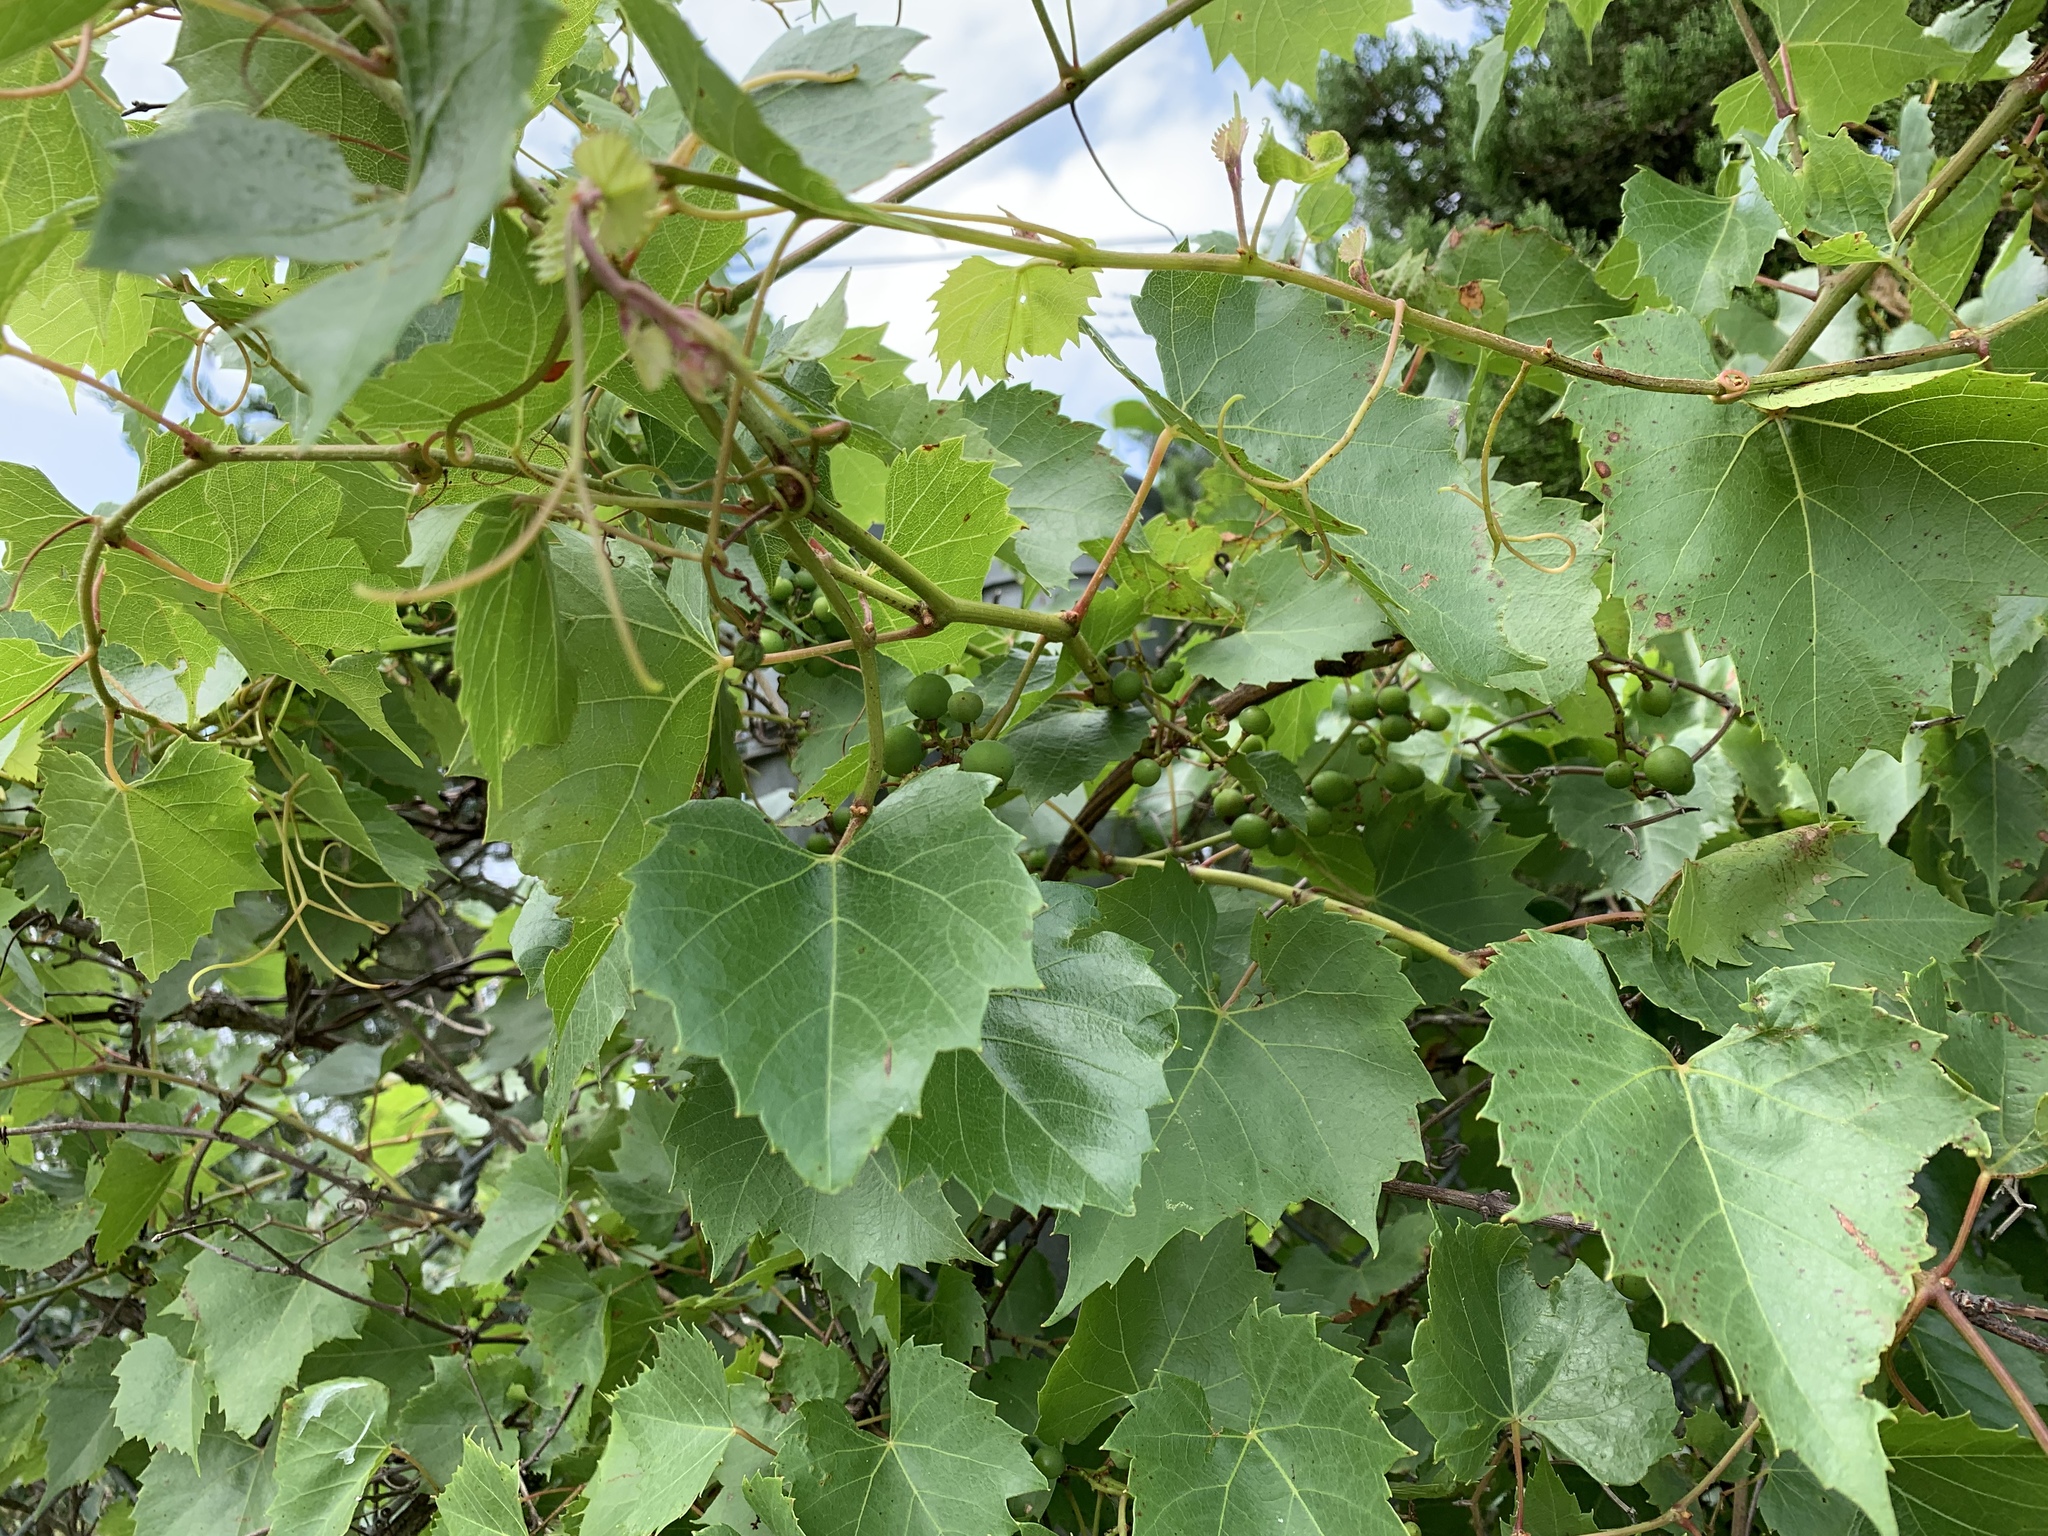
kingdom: Plantae
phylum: Tracheophyta
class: Magnoliopsida
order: Vitales
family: Vitaceae
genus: Vitis
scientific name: Vitis monticola
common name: Mountain grape
